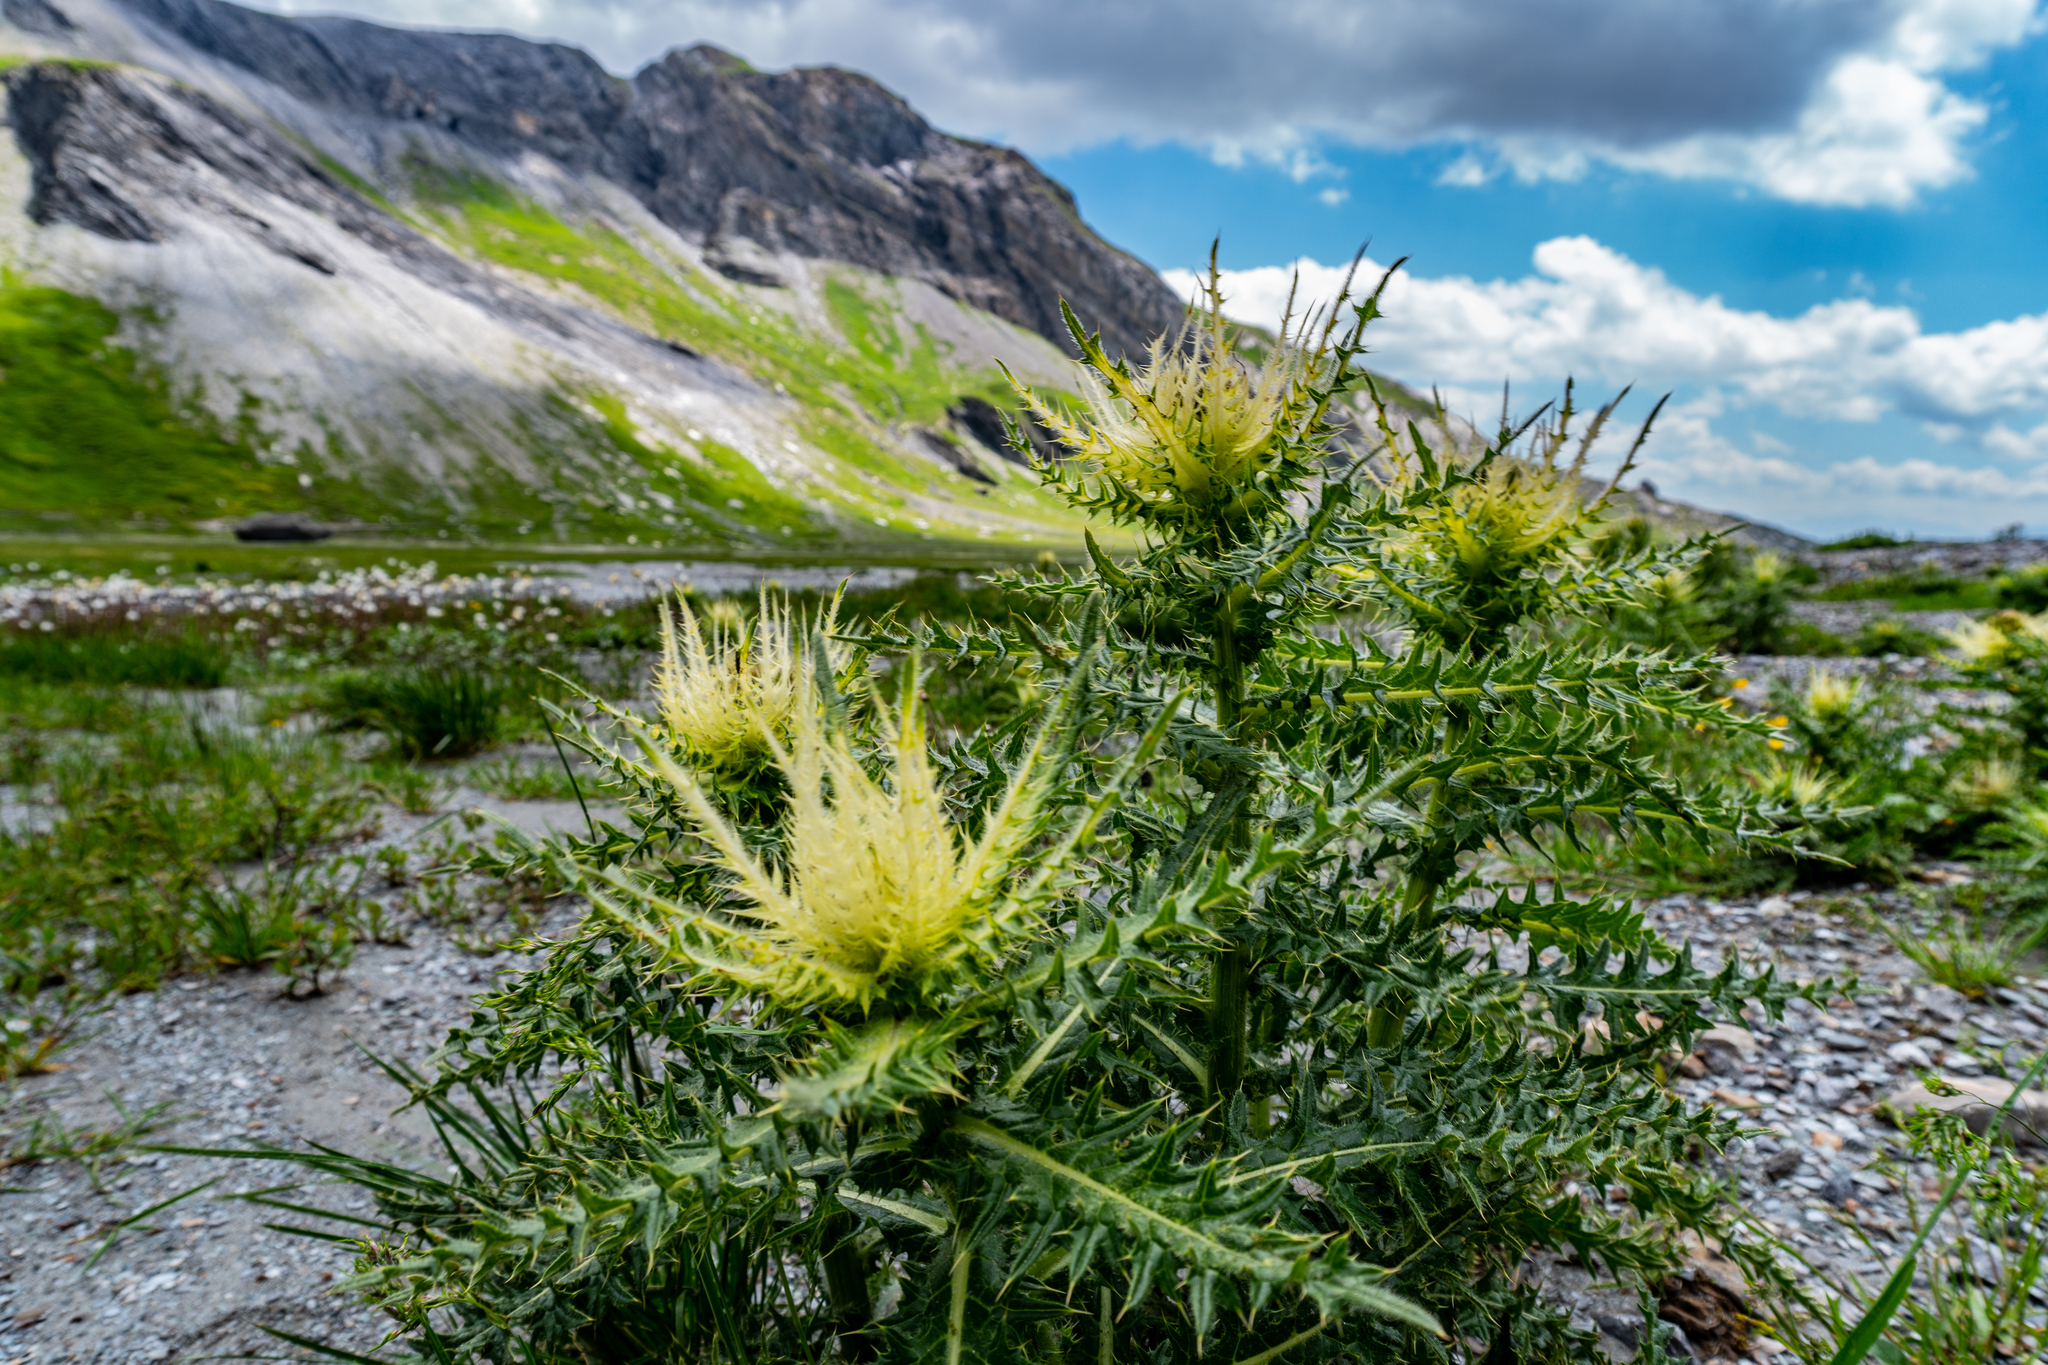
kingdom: Plantae
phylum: Tracheophyta
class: Magnoliopsida
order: Asterales
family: Asteraceae
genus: Cirsium
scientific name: Cirsium spinosissimum
